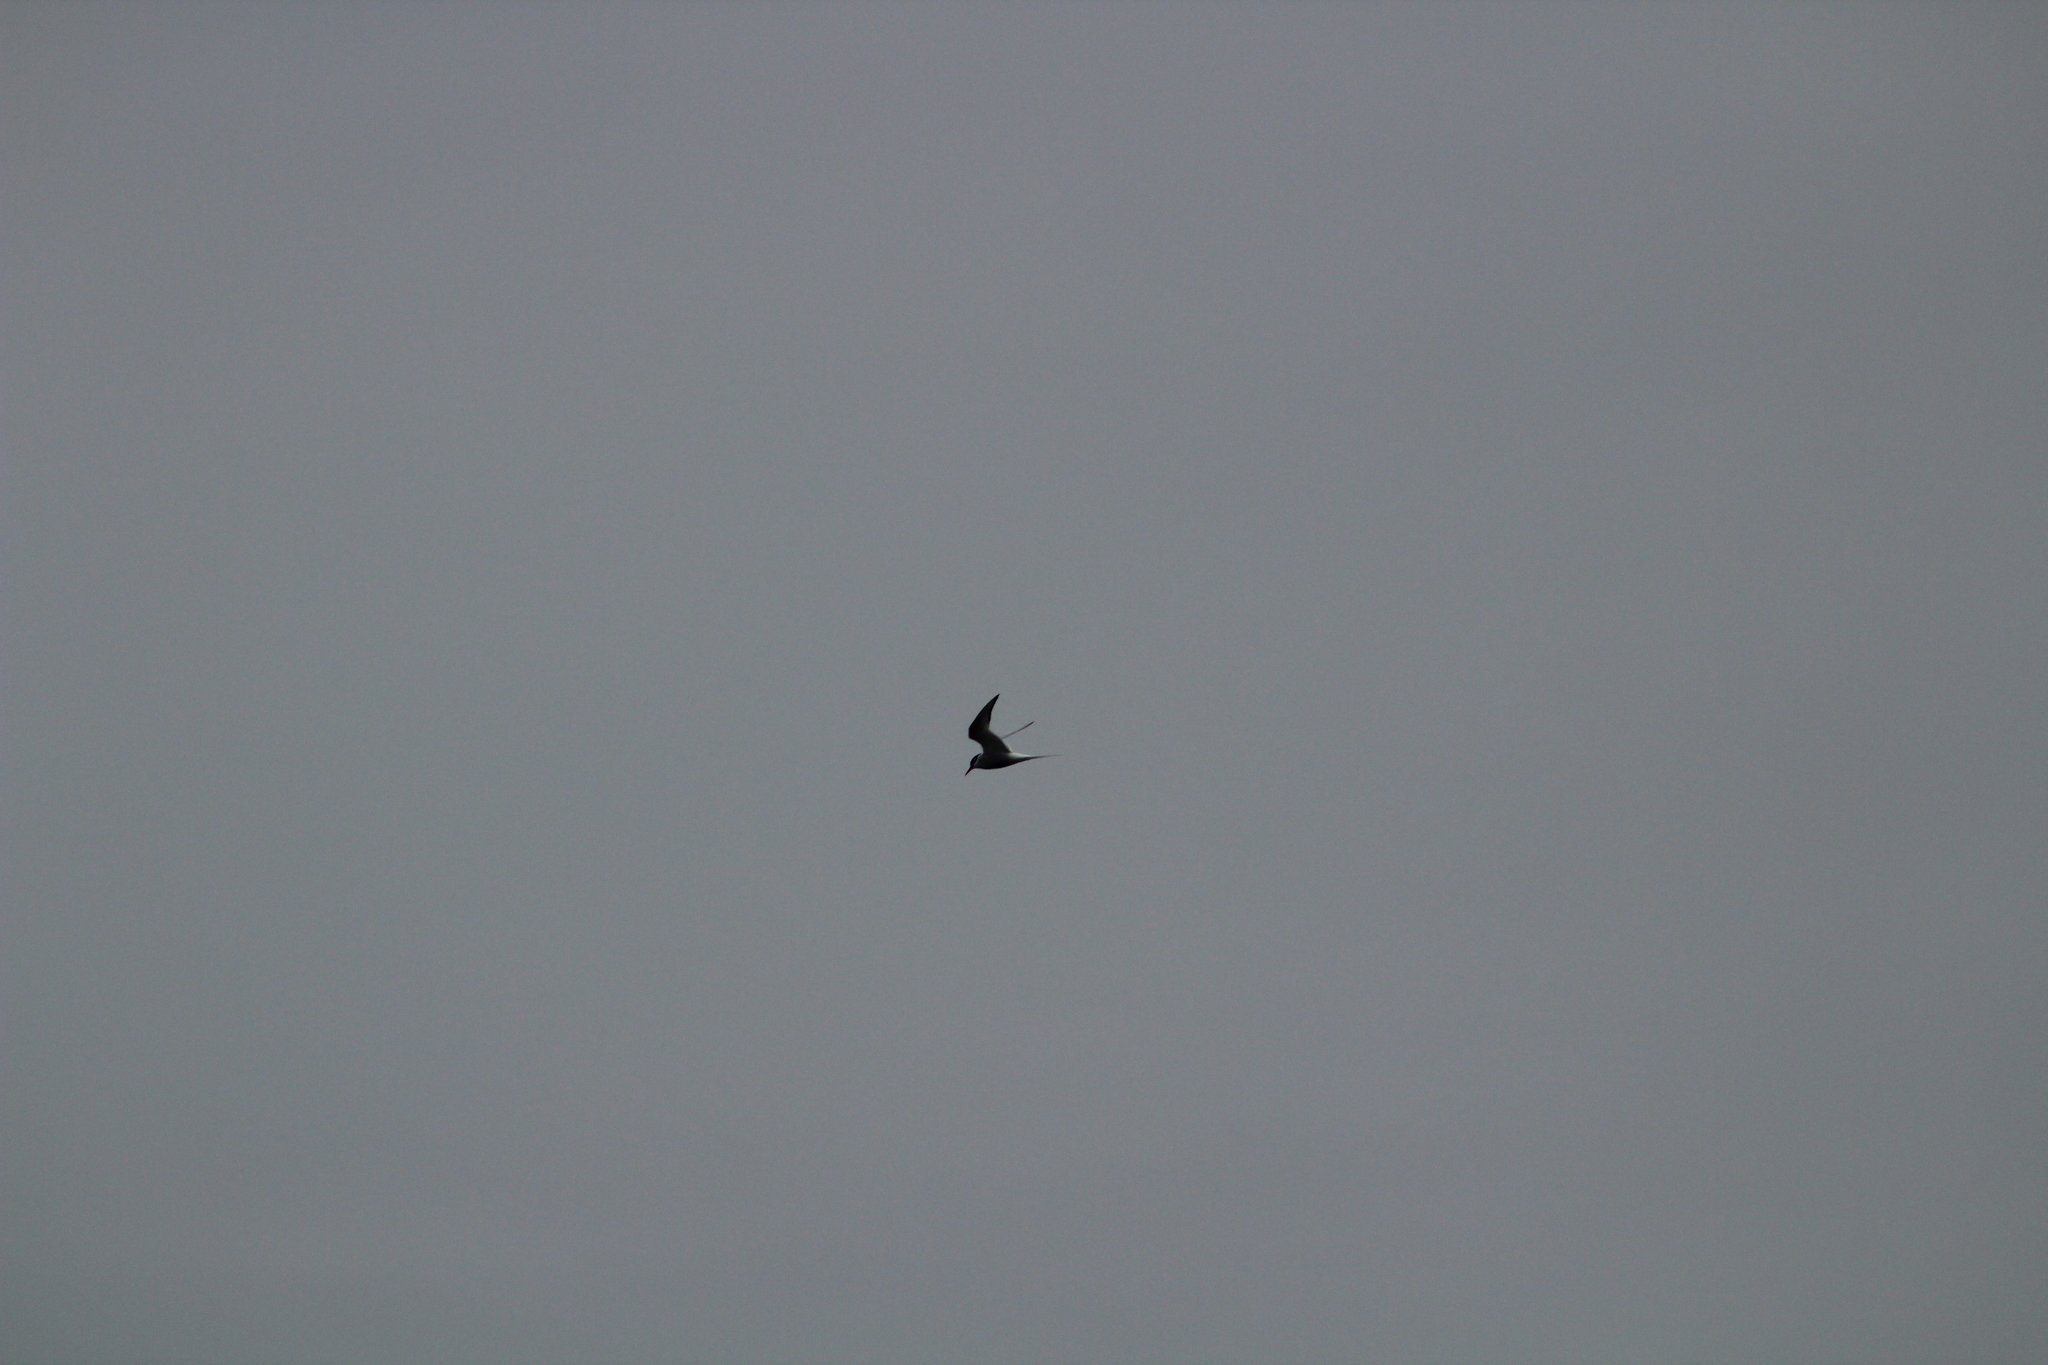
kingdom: Animalia
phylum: Chordata
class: Aves
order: Charadriiformes
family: Laridae
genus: Sterna
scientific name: Sterna hirundo
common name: Common tern
